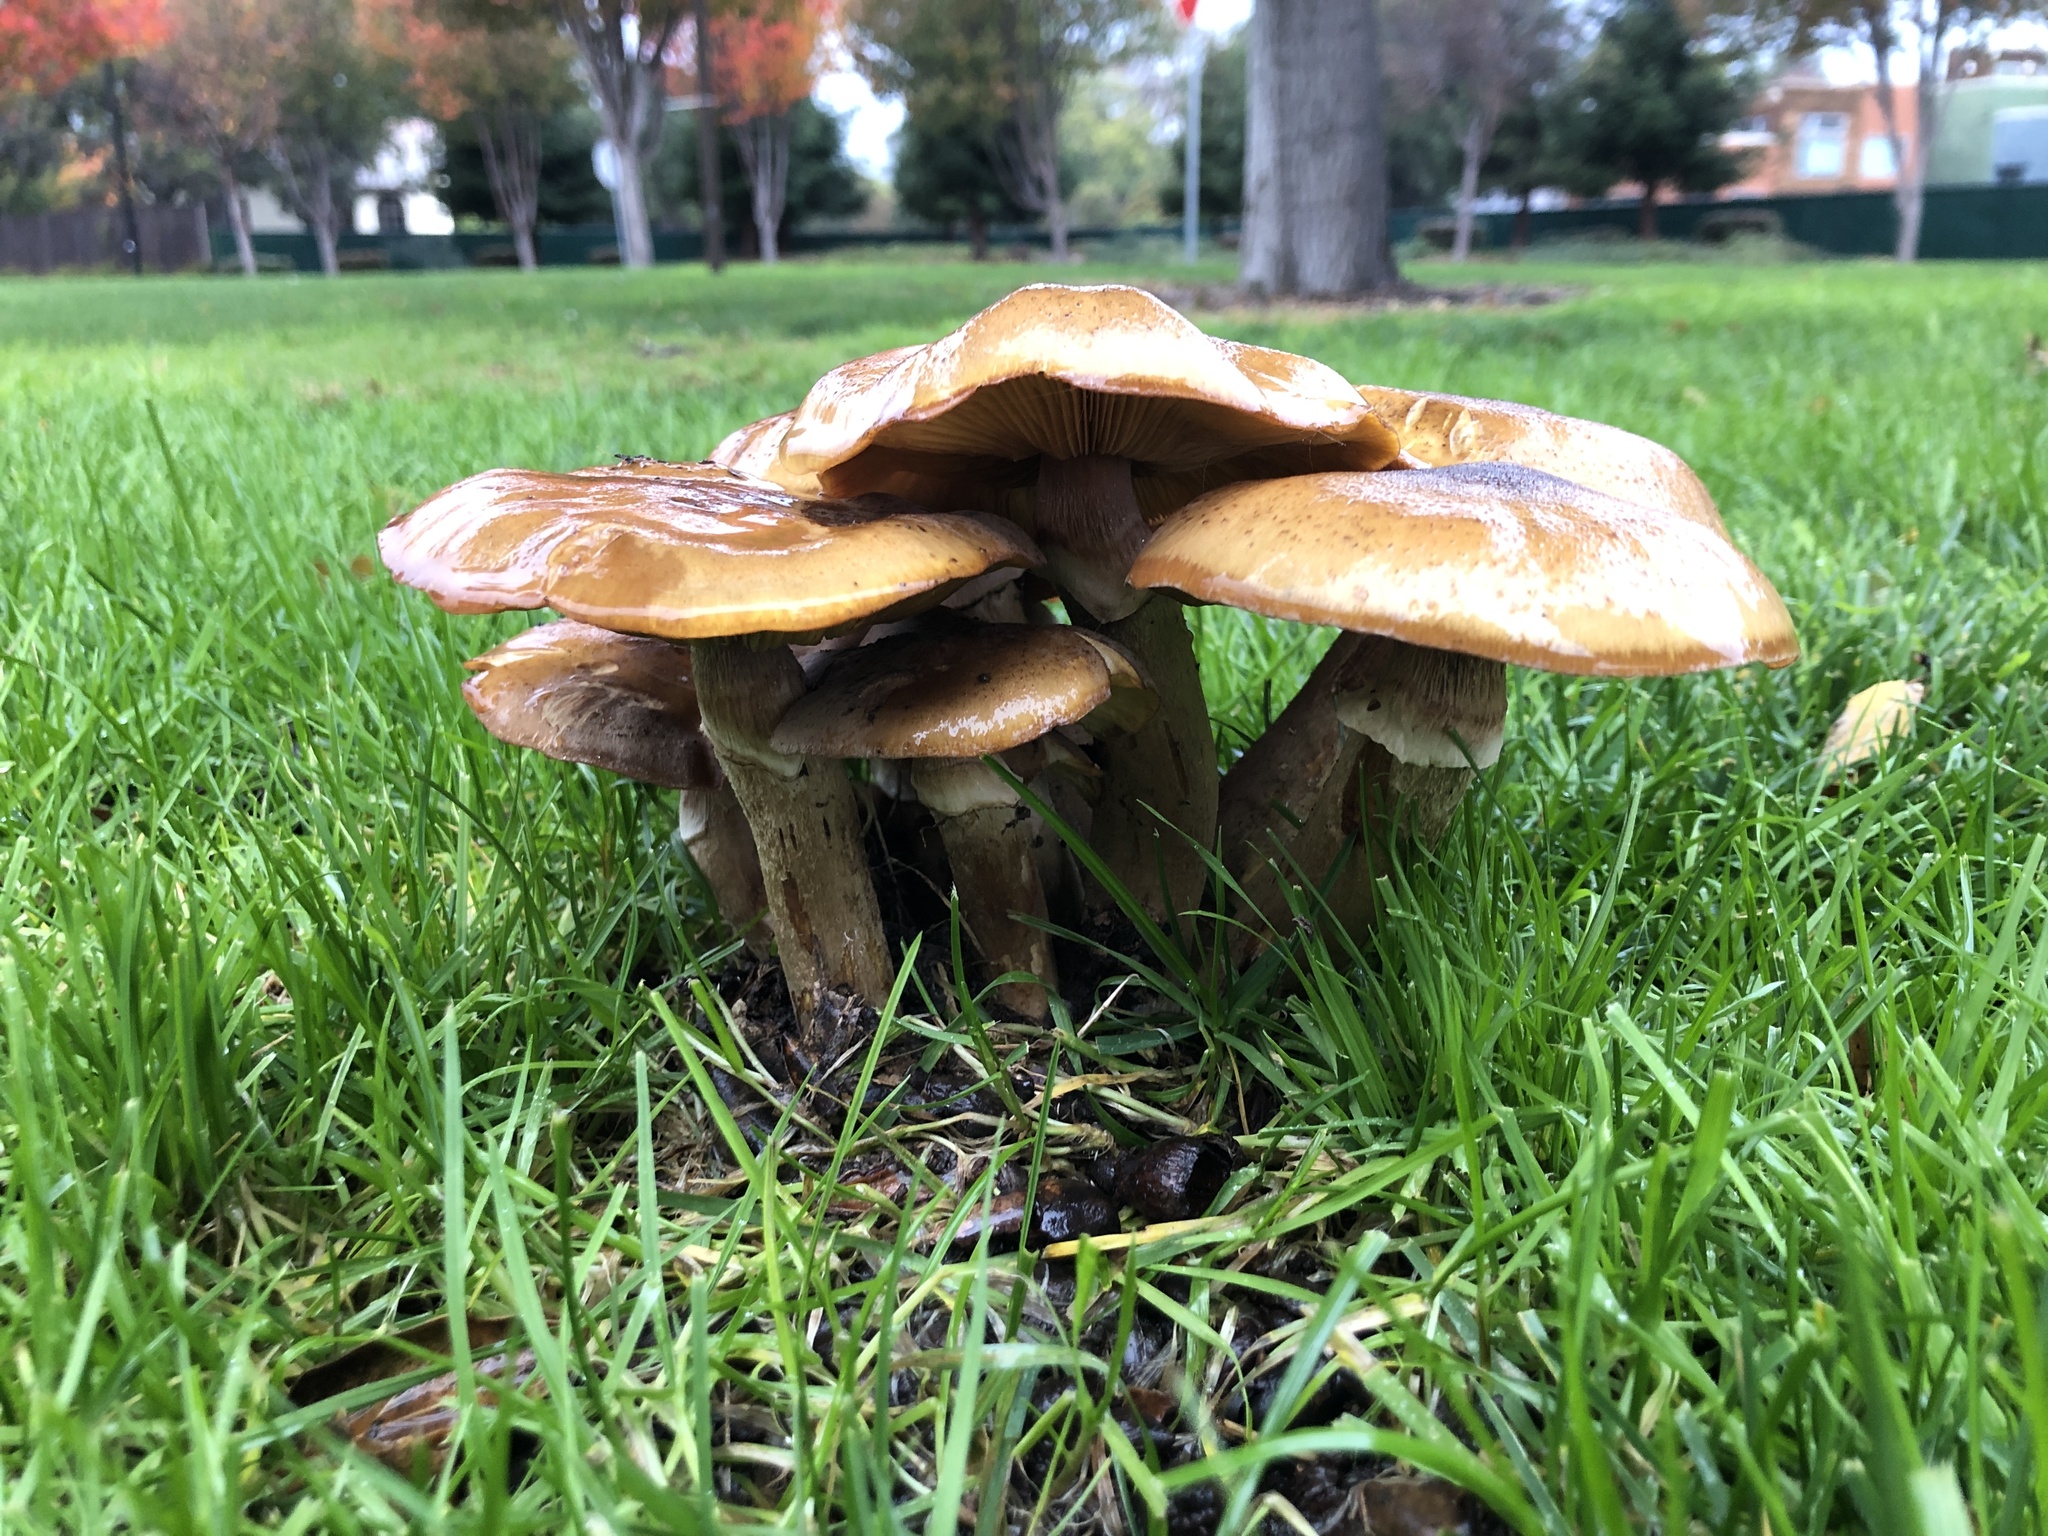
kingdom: Fungi
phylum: Basidiomycota
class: Agaricomycetes
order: Agaricales
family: Physalacriaceae
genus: Armillaria
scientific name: Armillaria mellea
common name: Honey fungus
